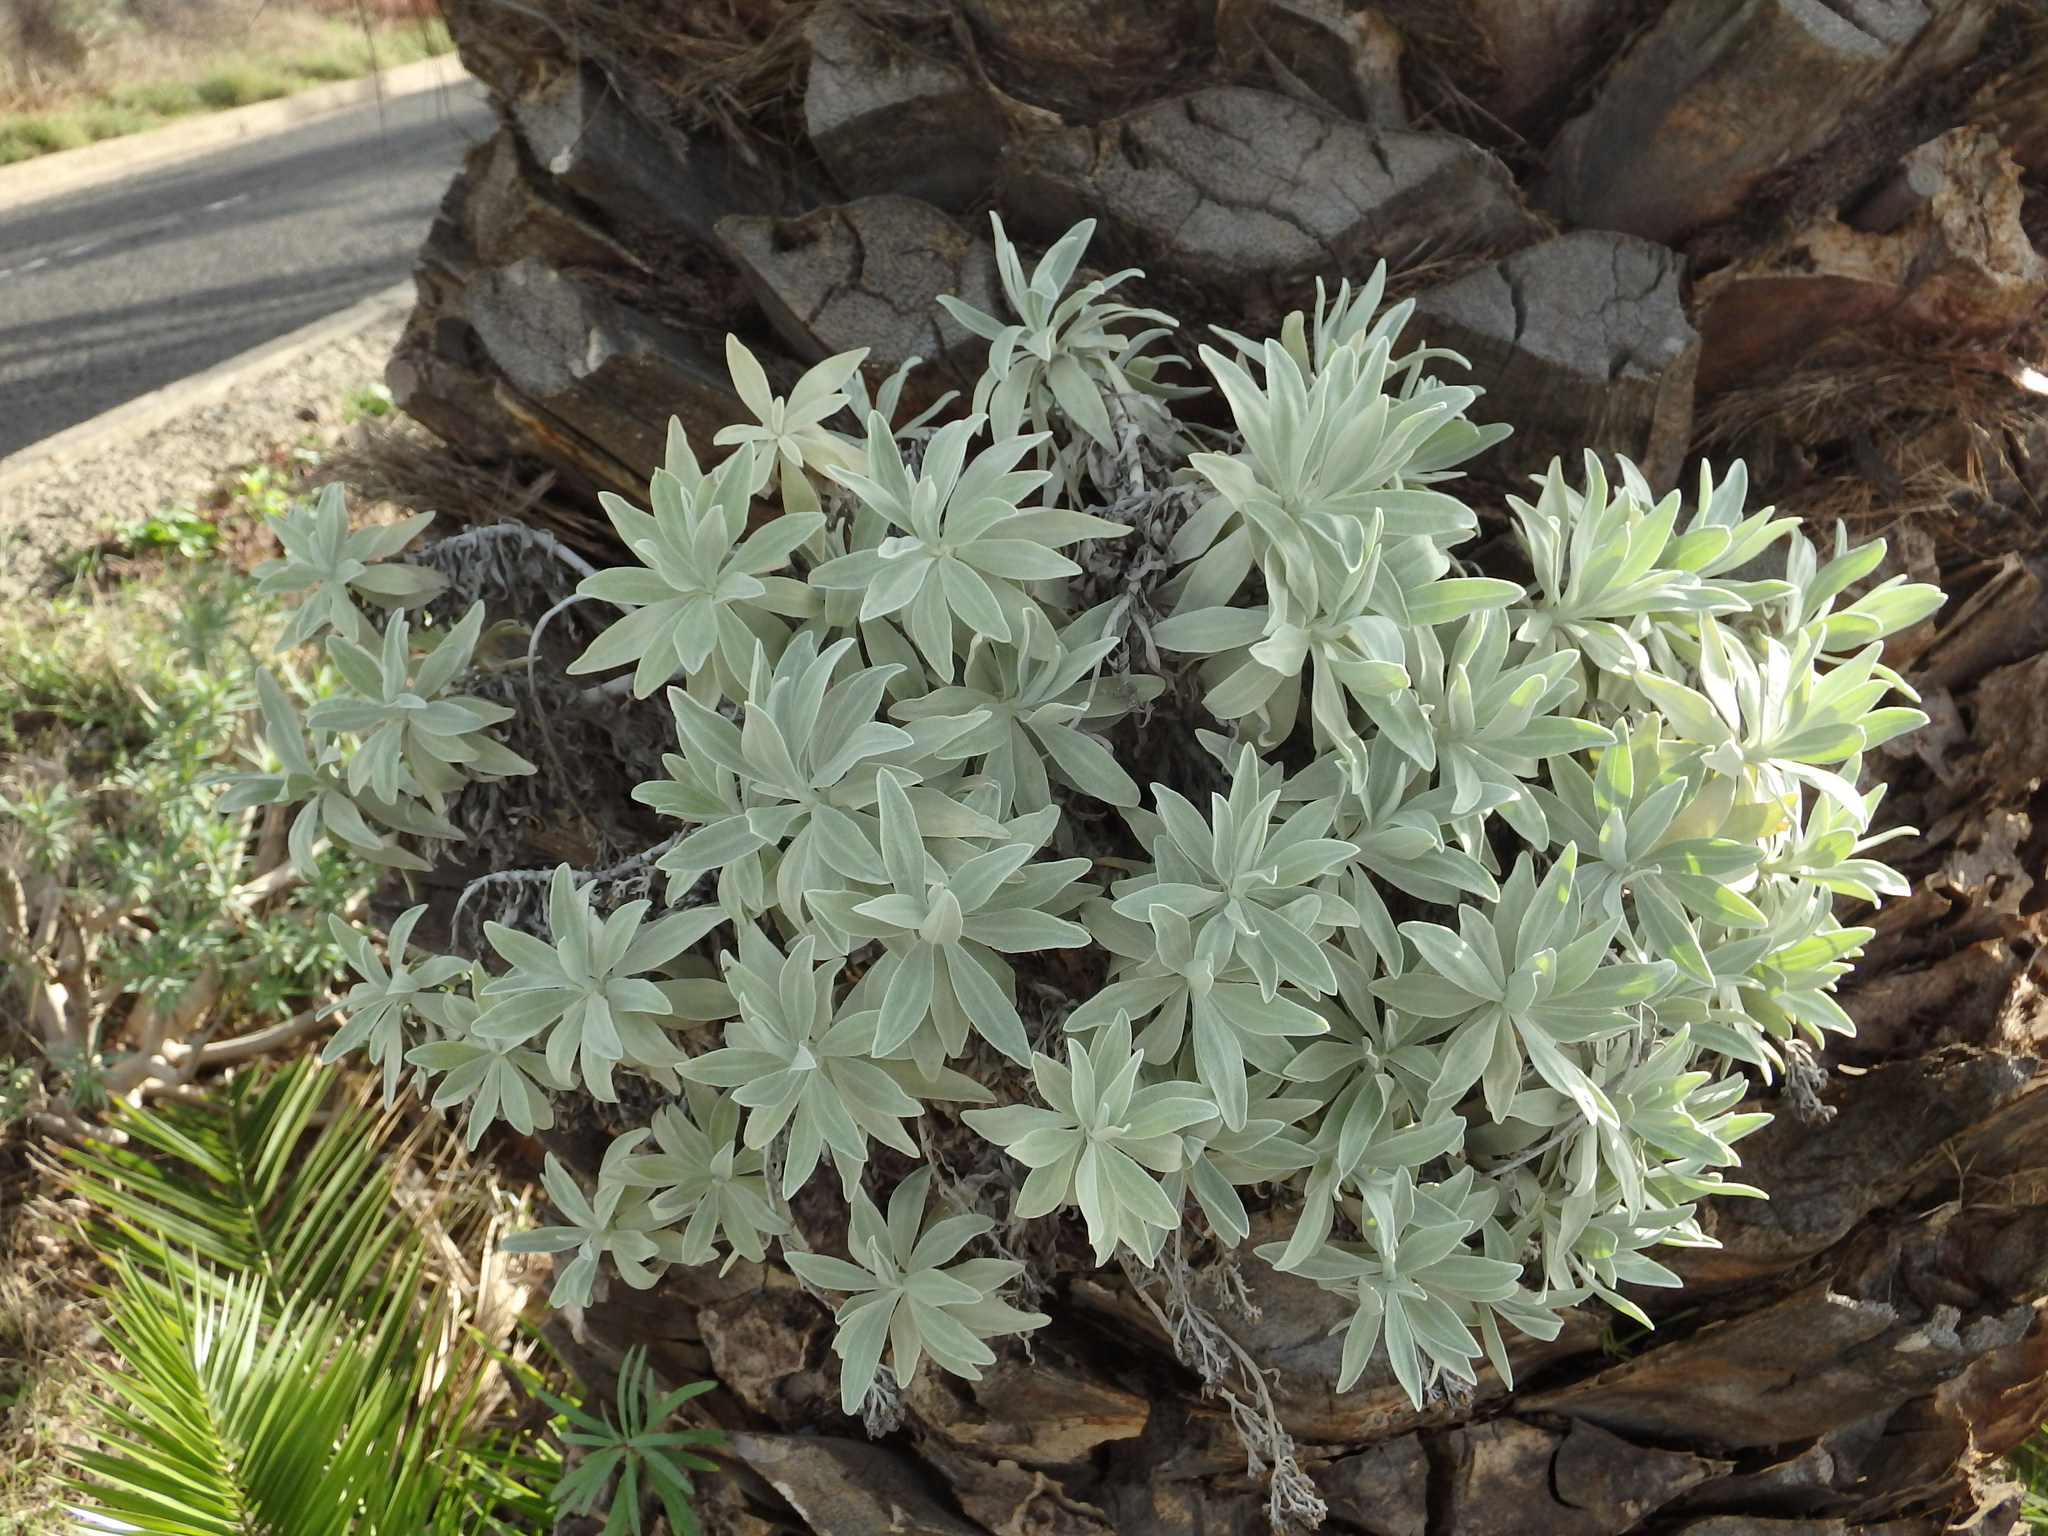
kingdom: Plantae
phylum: Tracheophyta
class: Magnoliopsida
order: Asterales
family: Asteraceae
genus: Helichrysum
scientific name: Helichrysum melaleucum
